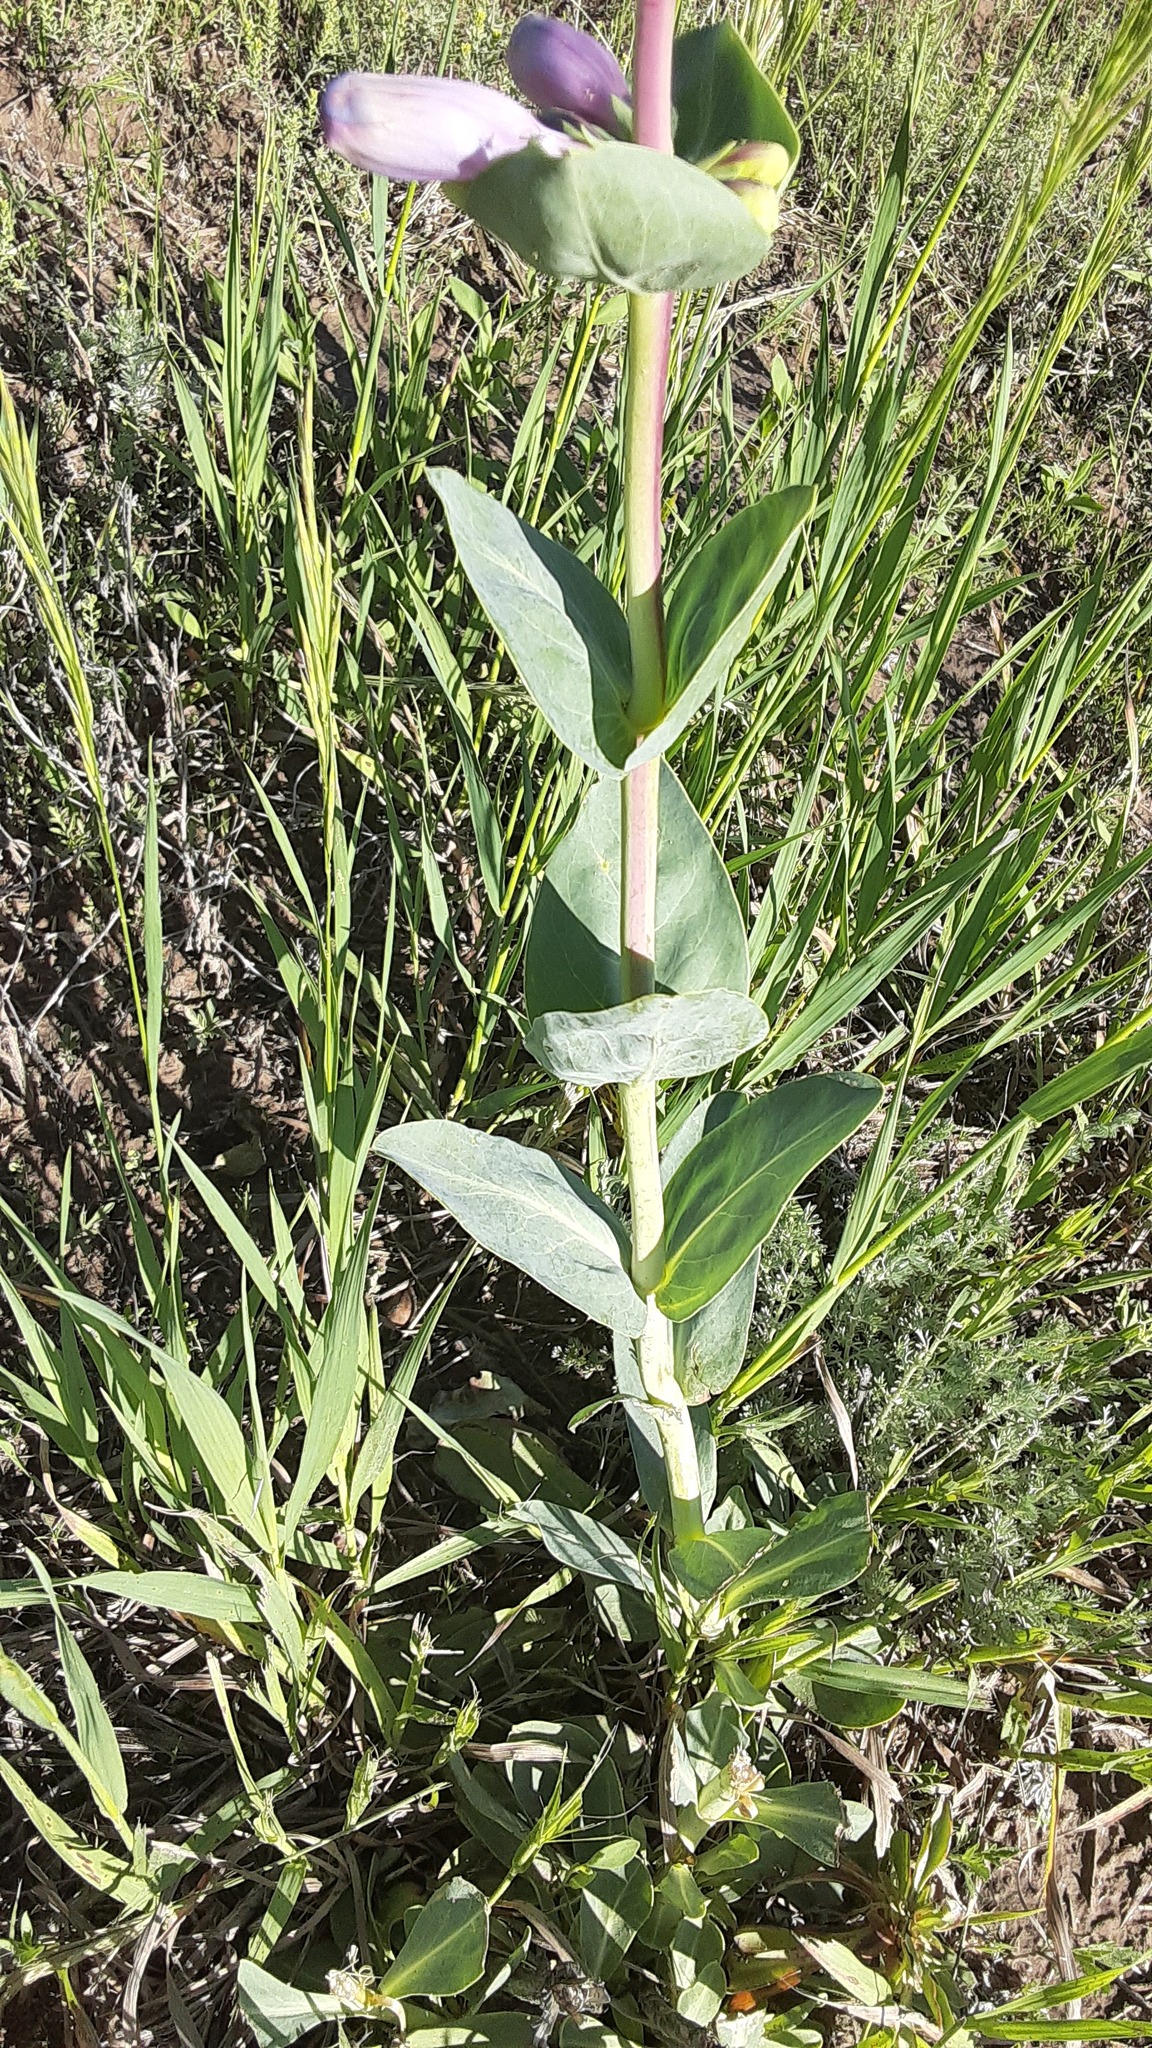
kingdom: Plantae
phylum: Tracheophyta
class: Magnoliopsida
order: Lamiales
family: Plantaginaceae
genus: Penstemon
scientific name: Penstemon
